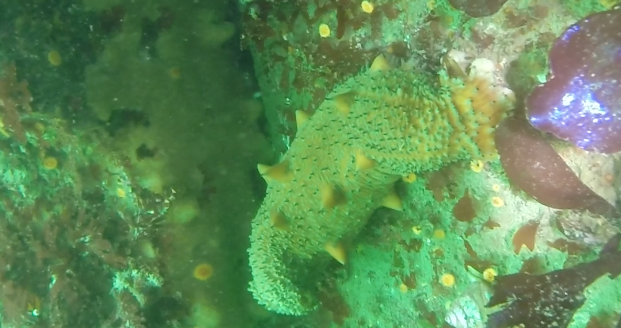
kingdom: Animalia
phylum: Echinodermata
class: Holothuroidea
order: Synallactida
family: Stichopodidae
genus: Apostichopus
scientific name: Apostichopus parvimensis
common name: Warty sea cucumber
